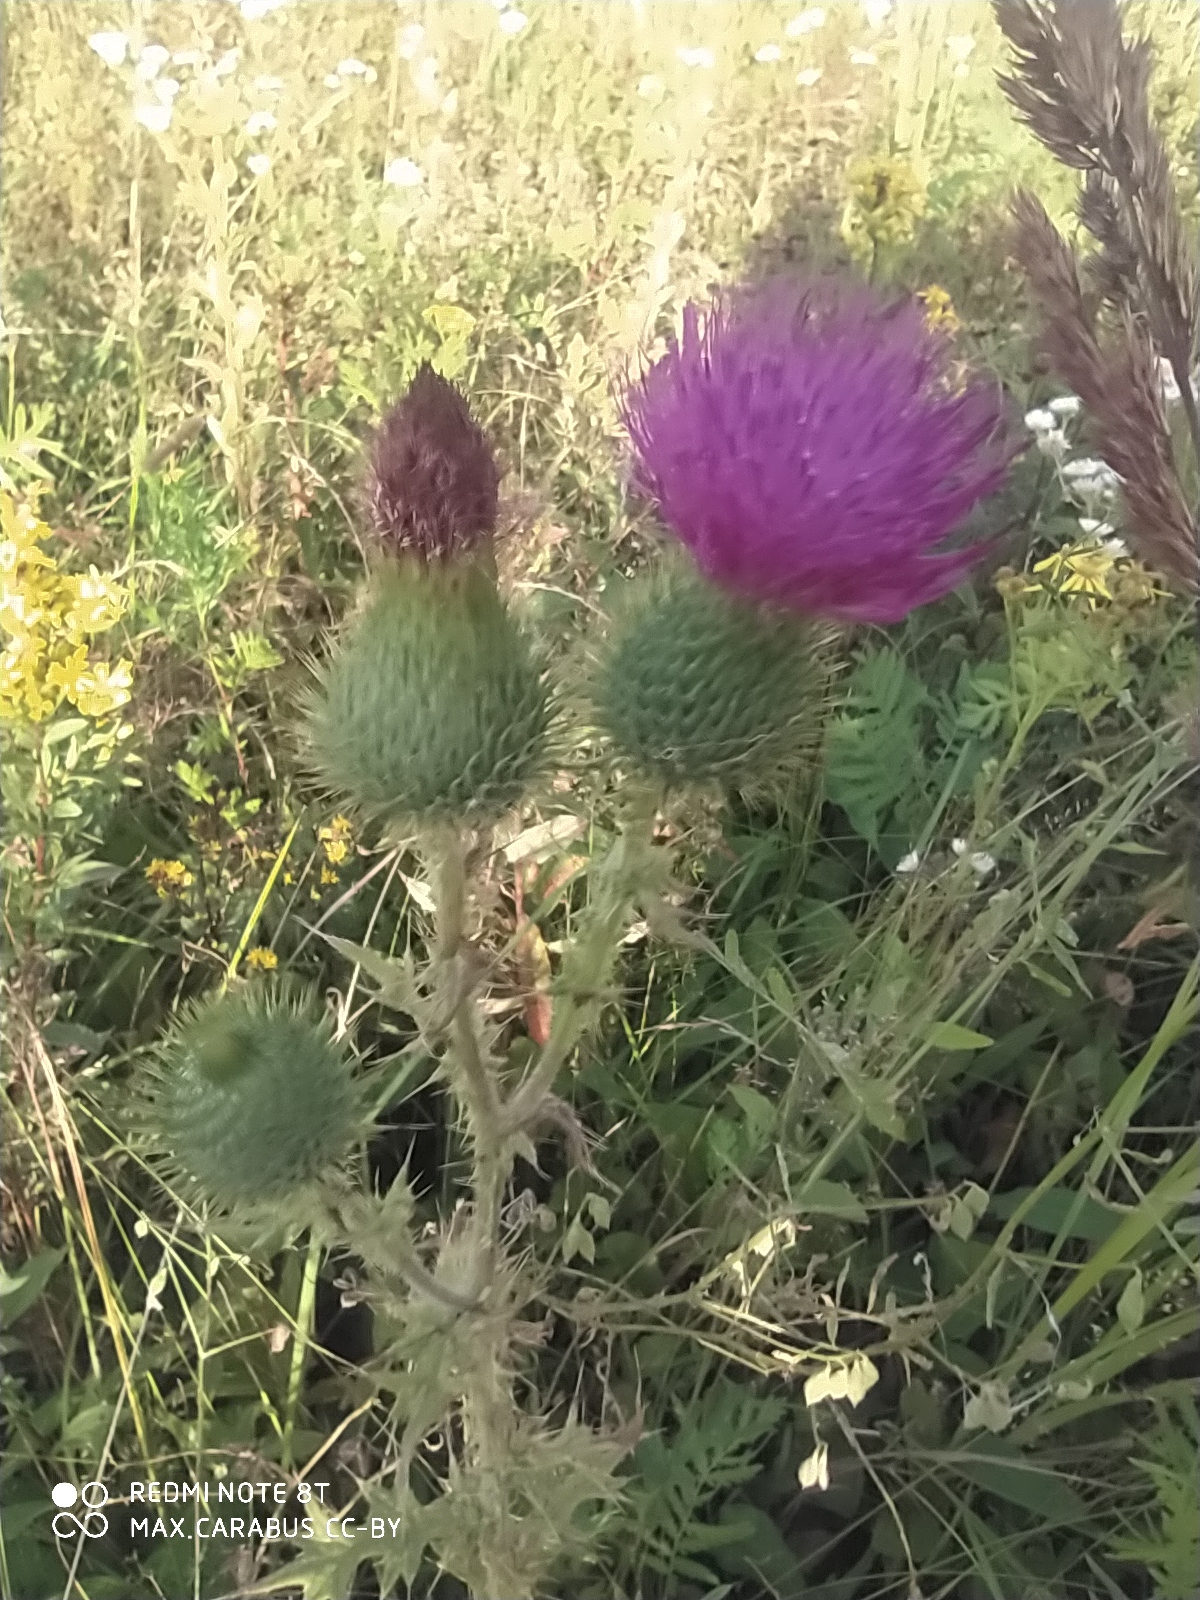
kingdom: Plantae
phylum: Tracheophyta
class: Magnoliopsida
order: Asterales
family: Asteraceae
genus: Cirsium
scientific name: Cirsium vulgare
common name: Bull thistle
